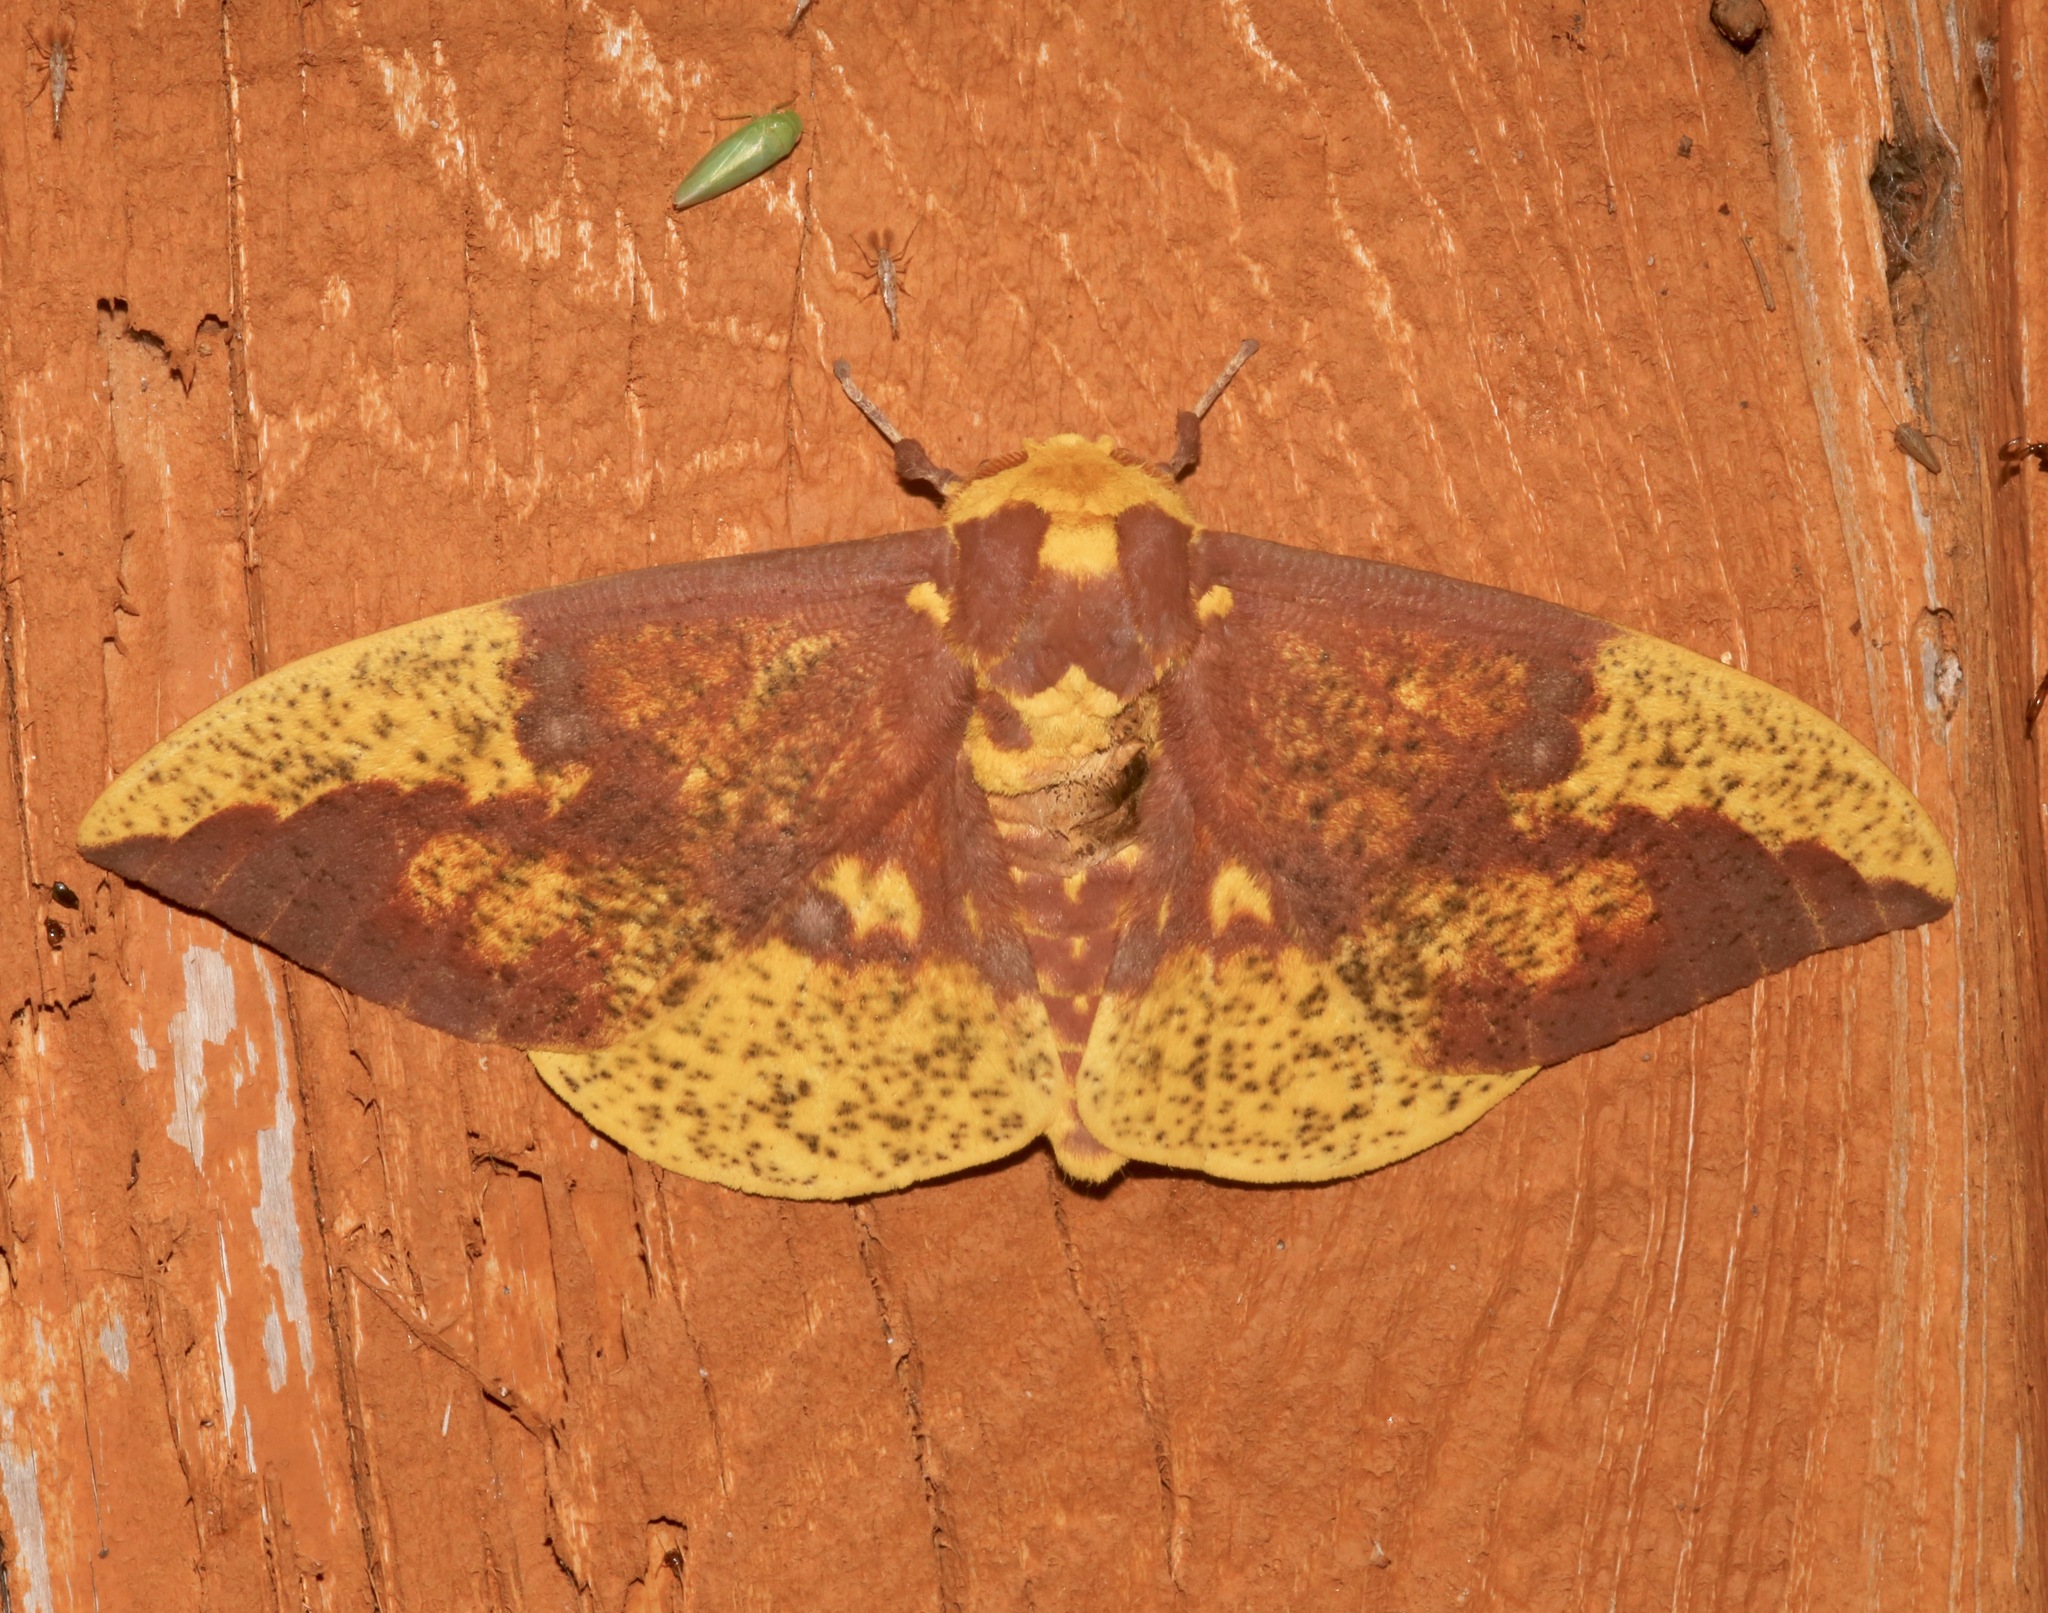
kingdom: Animalia
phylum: Arthropoda
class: Insecta
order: Lepidoptera
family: Saturniidae
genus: Eacles
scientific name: Eacles imperialis
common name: Imperial moth
